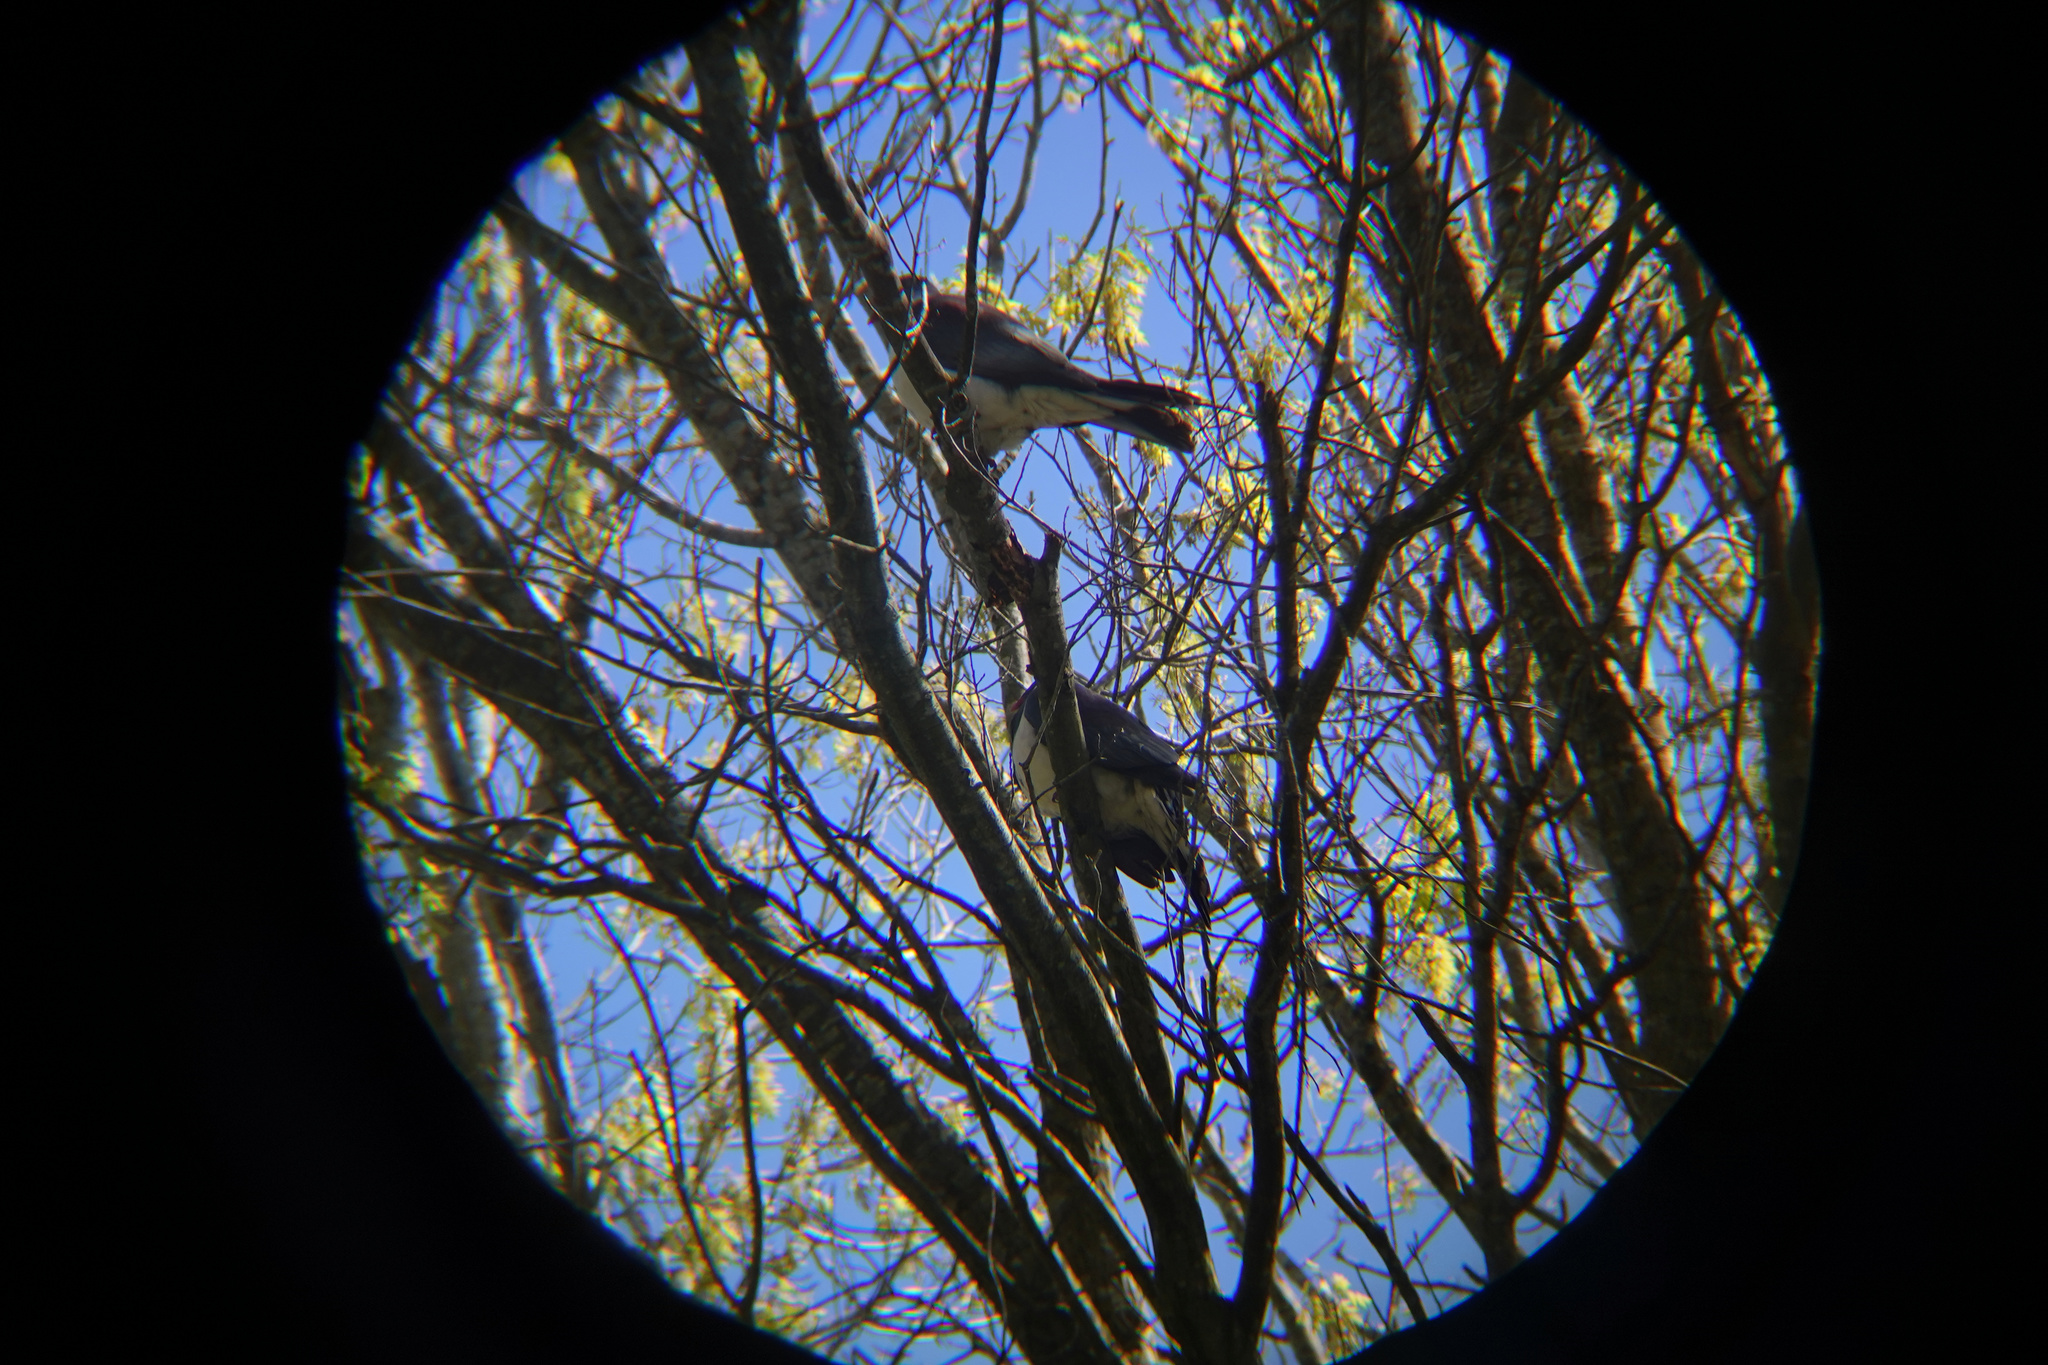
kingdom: Animalia
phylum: Chordata
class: Aves
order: Columbiformes
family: Columbidae
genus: Hemiphaga
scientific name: Hemiphaga novaeseelandiae
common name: New zealand pigeon
